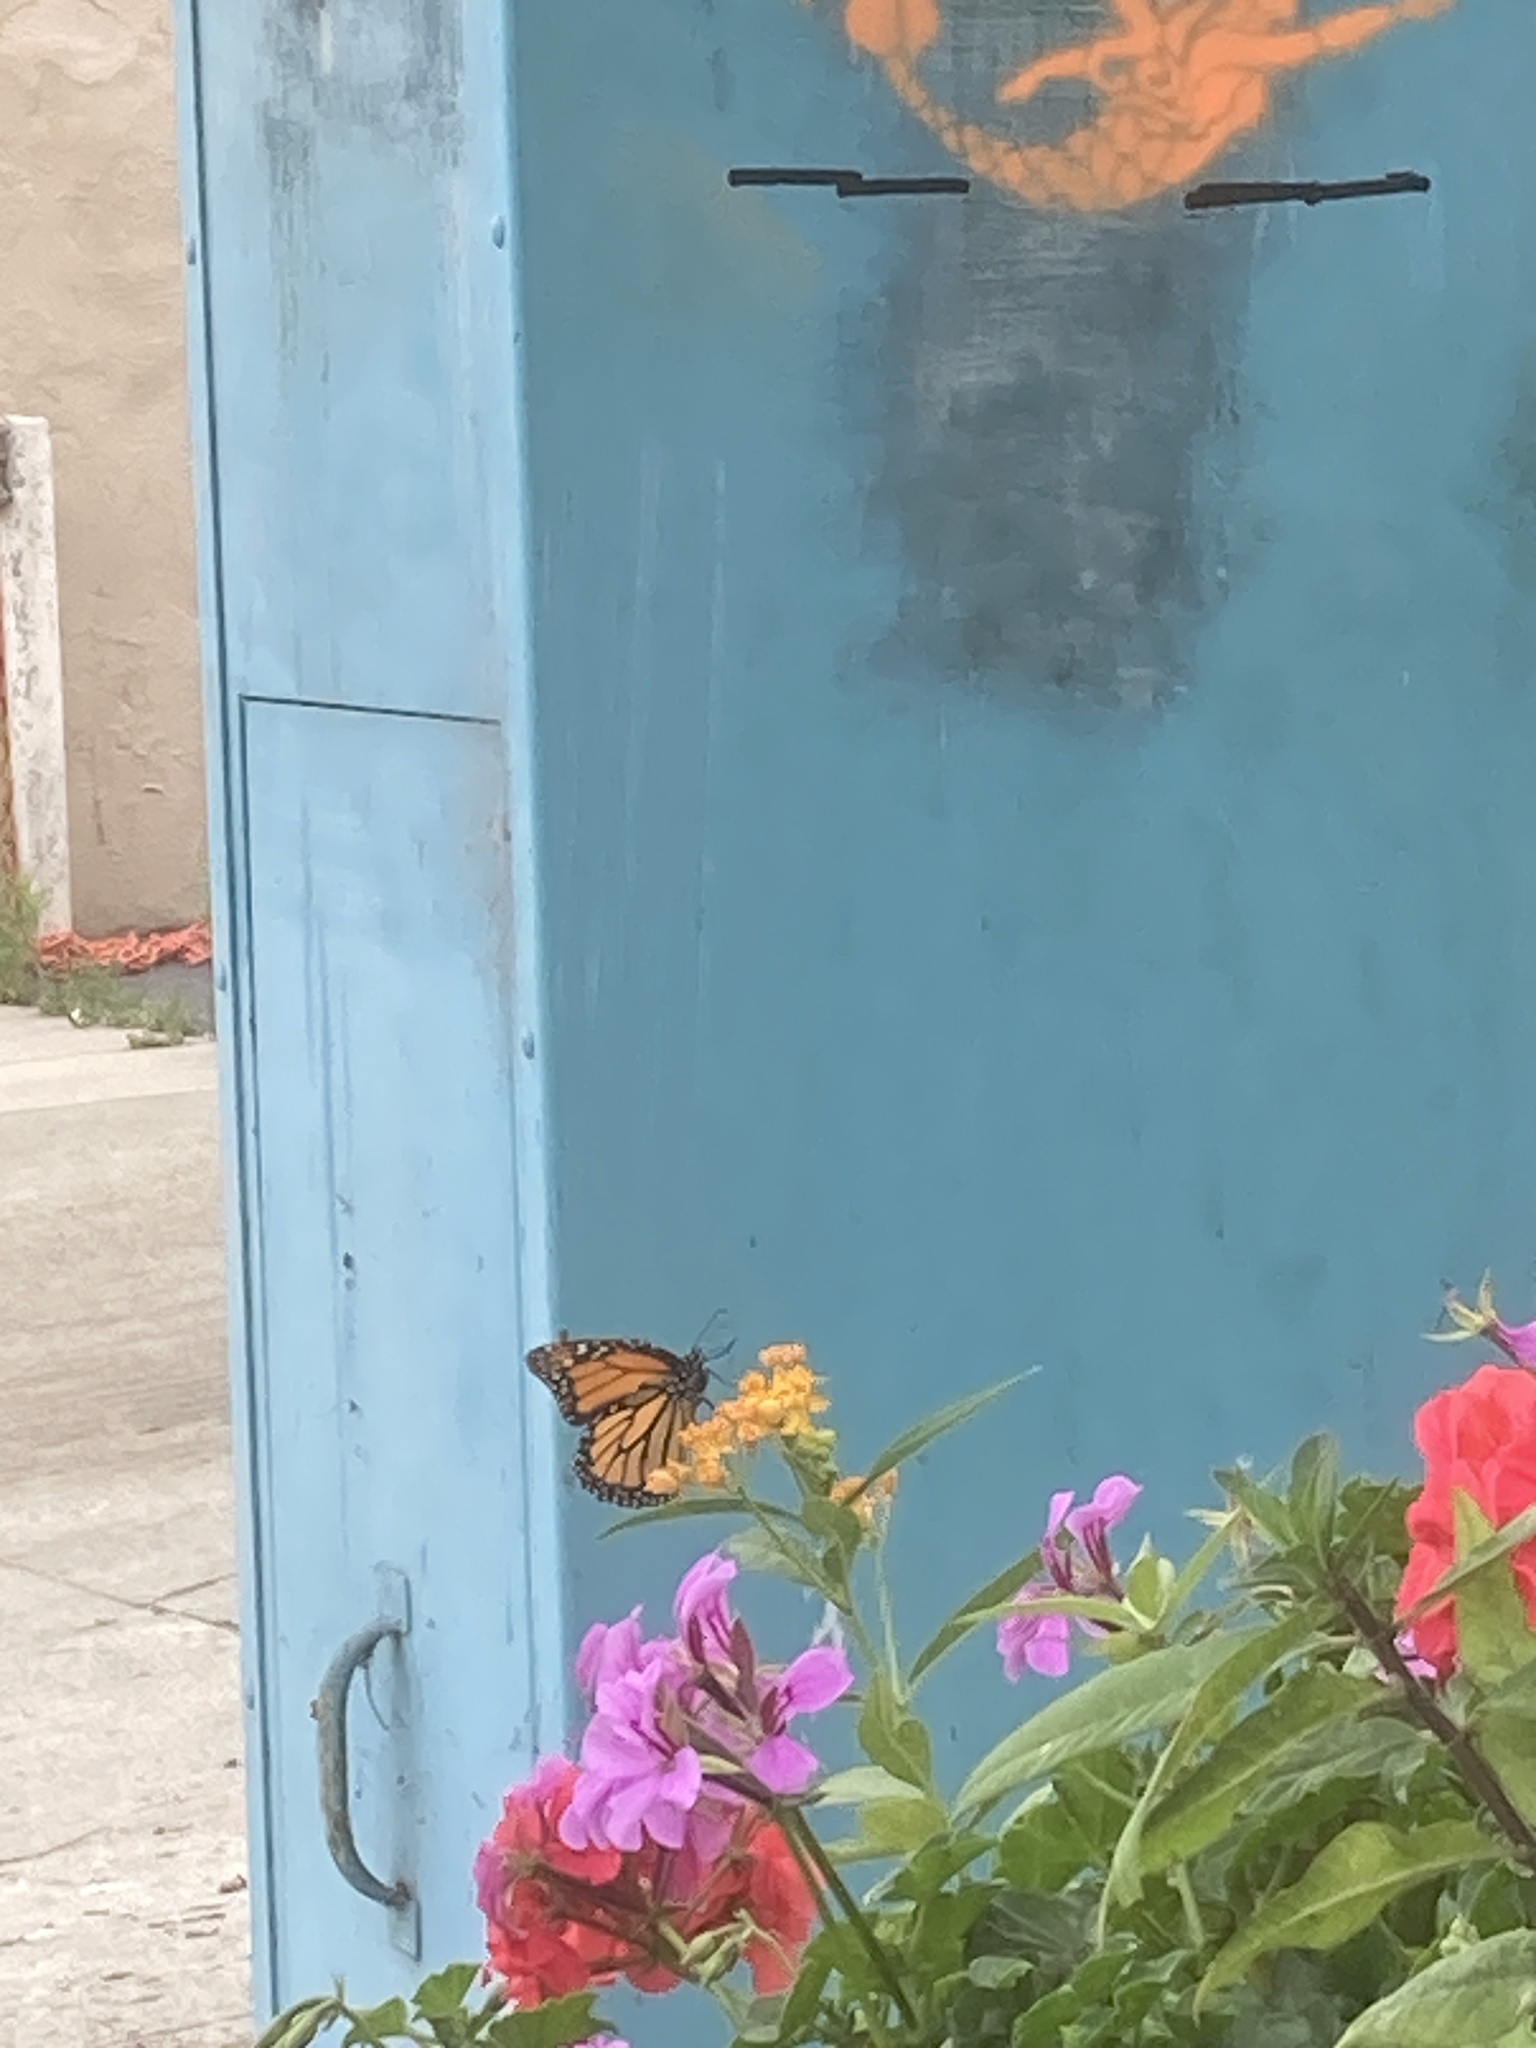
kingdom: Animalia
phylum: Arthropoda
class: Insecta
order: Lepidoptera
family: Nymphalidae
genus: Danaus
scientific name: Danaus plexippus
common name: Monarch
